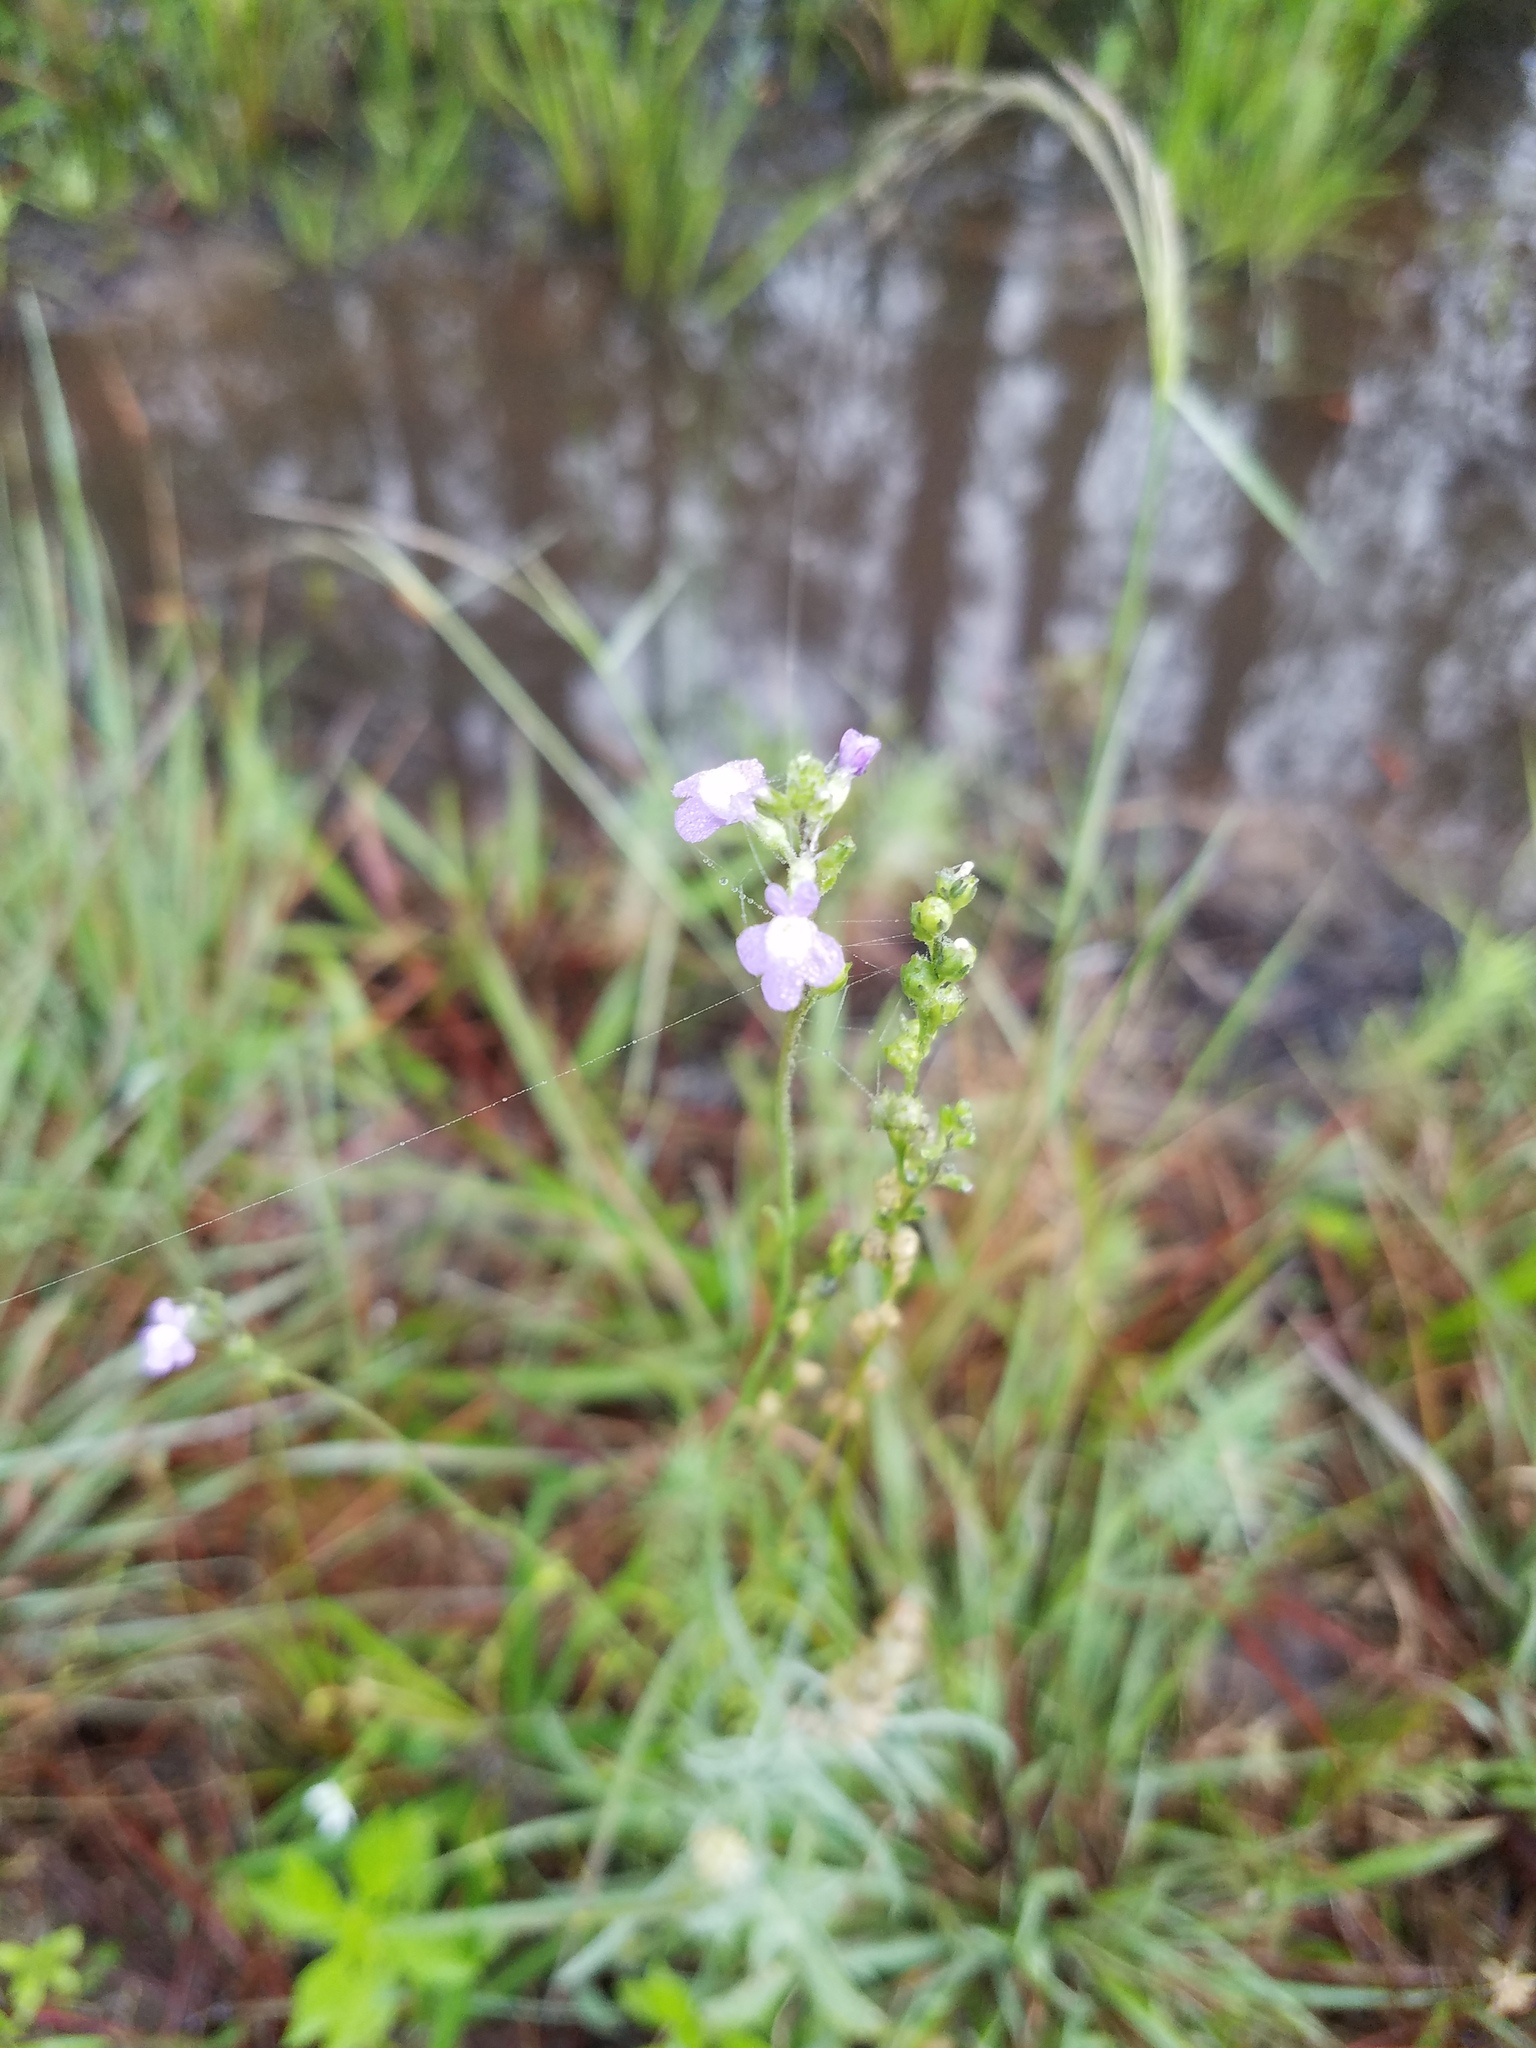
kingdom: Plantae
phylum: Tracheophyta
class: Magnoliopsida
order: Lamiales
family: Plantaginaceae
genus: Nuttallanthus
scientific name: Nuttallanthus canadensis
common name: Blue toadflax
